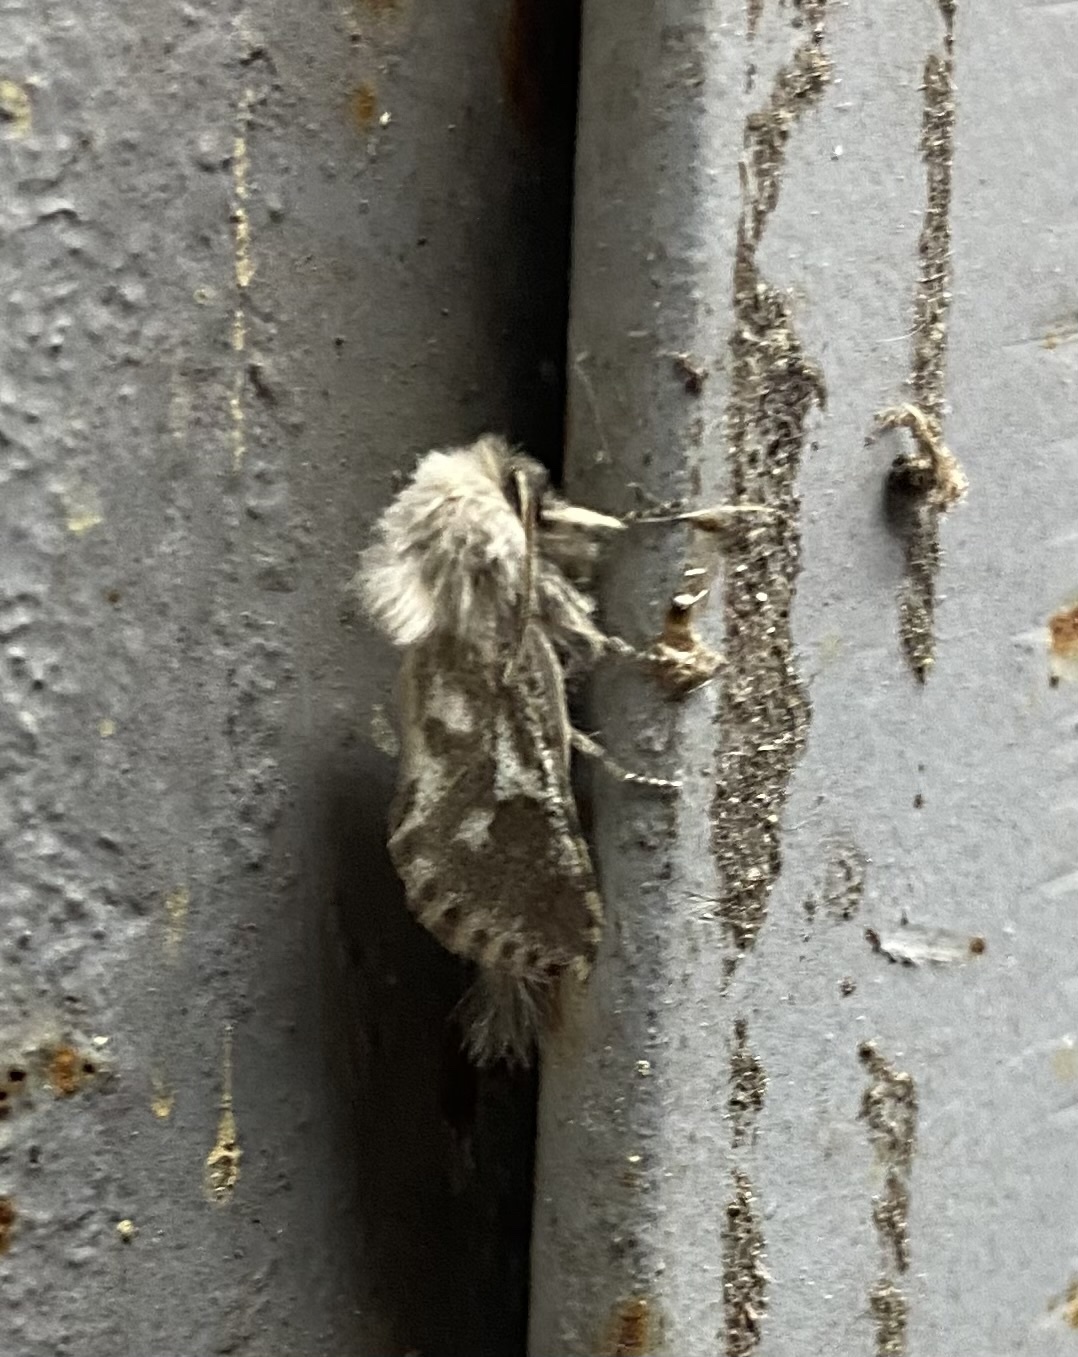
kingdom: Animalia
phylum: Arthropoda
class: Insecta
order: Lepidoptera
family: Cossidae
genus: Dyspessa
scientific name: Dyspessa ulula
